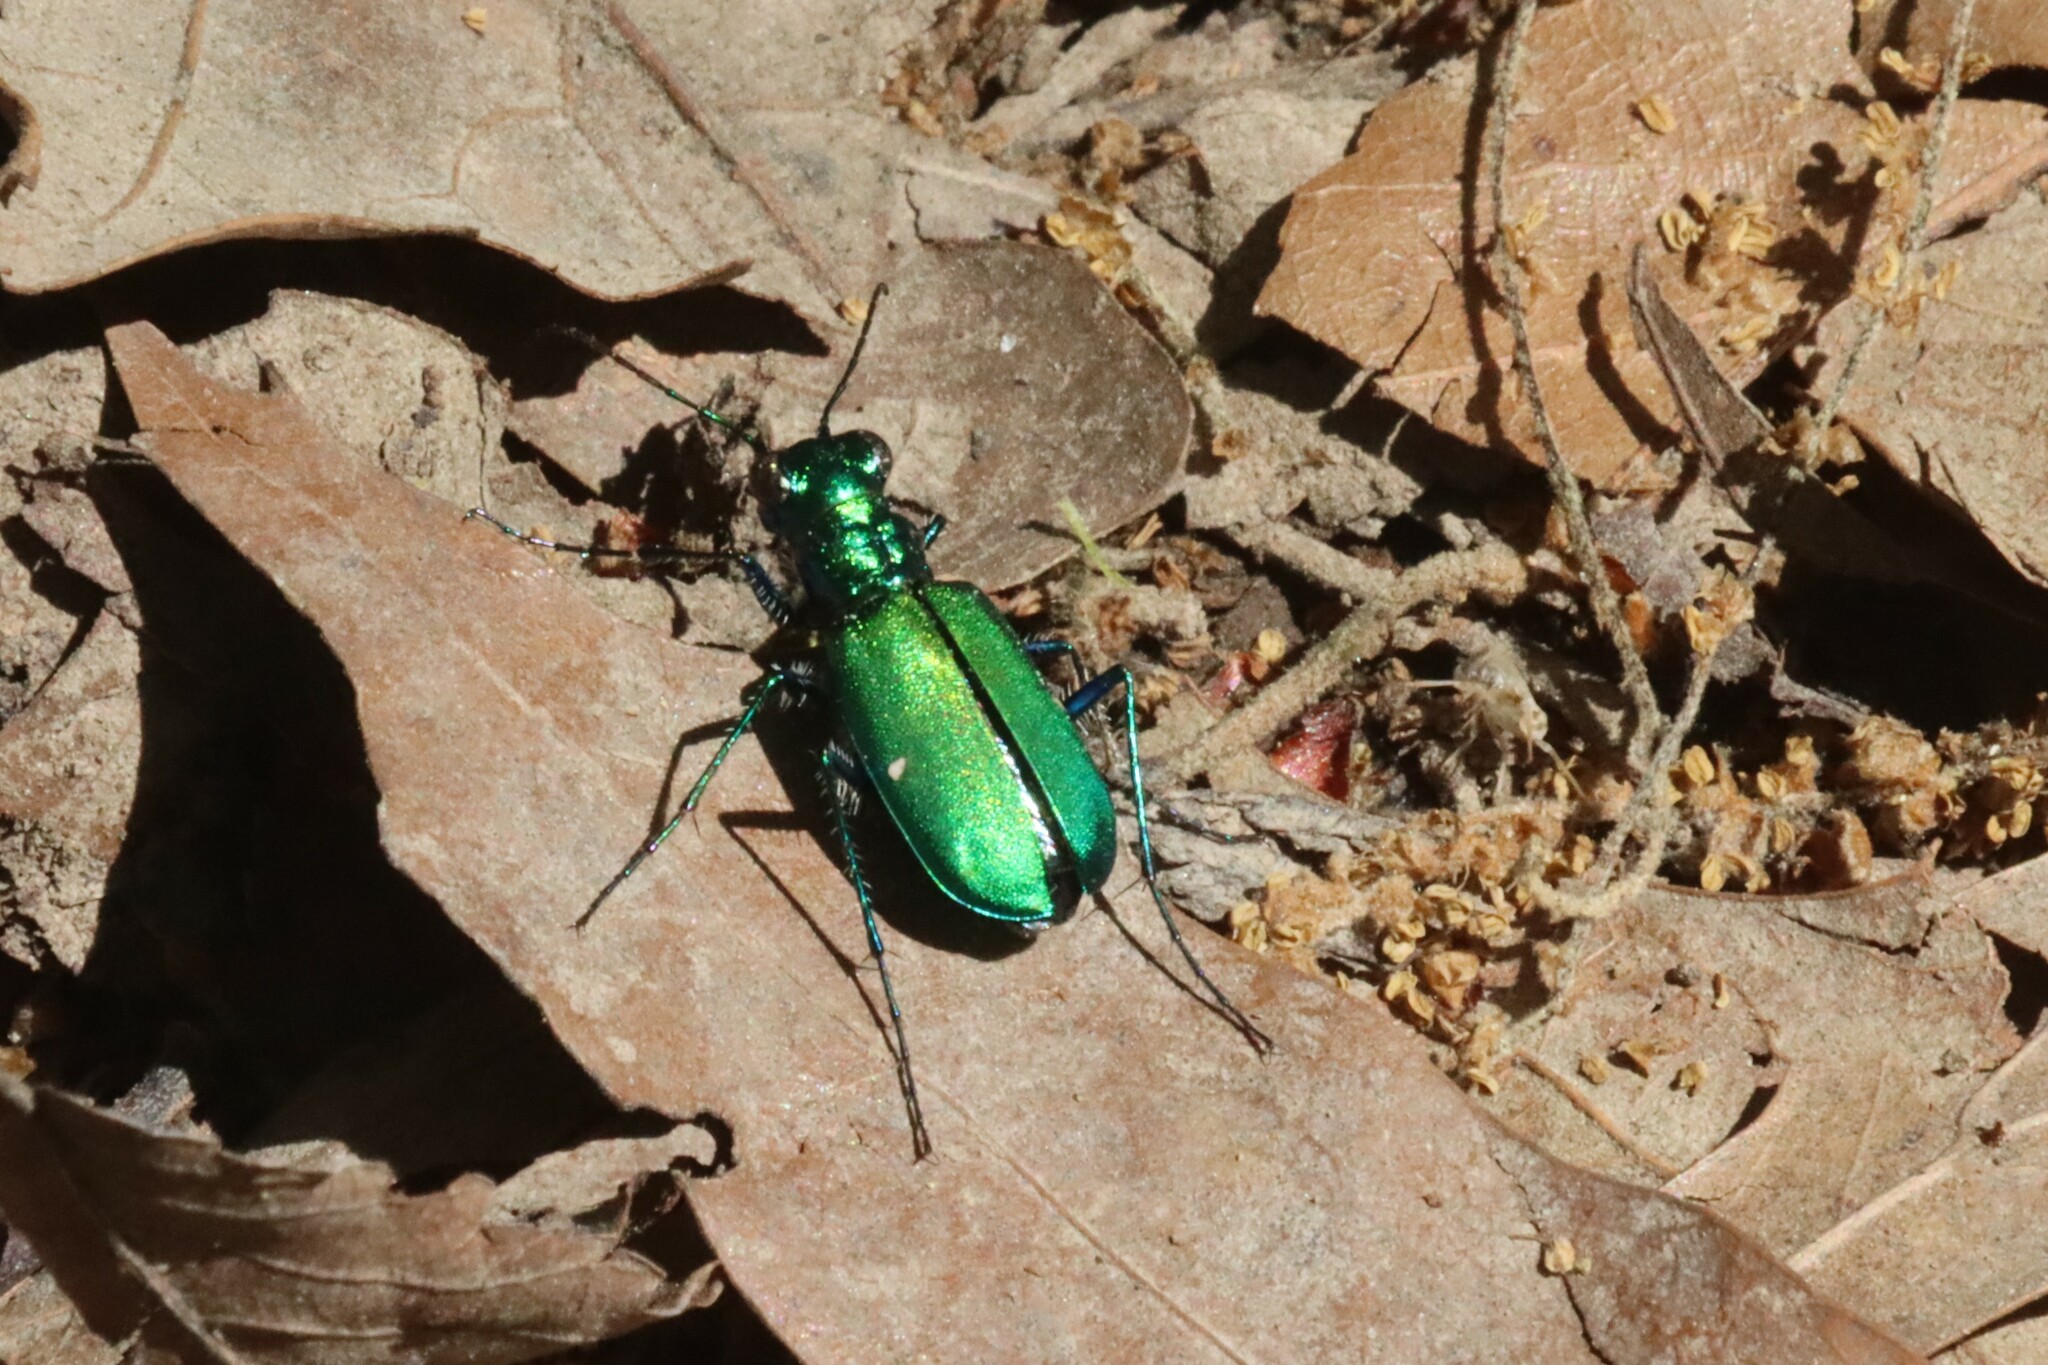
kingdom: Animalia
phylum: Arthropoda
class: Insecta
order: Coleoptera
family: Carabidae
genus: Cicindela
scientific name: Cicindela sexguttata
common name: Six-spotted tiger beetle
